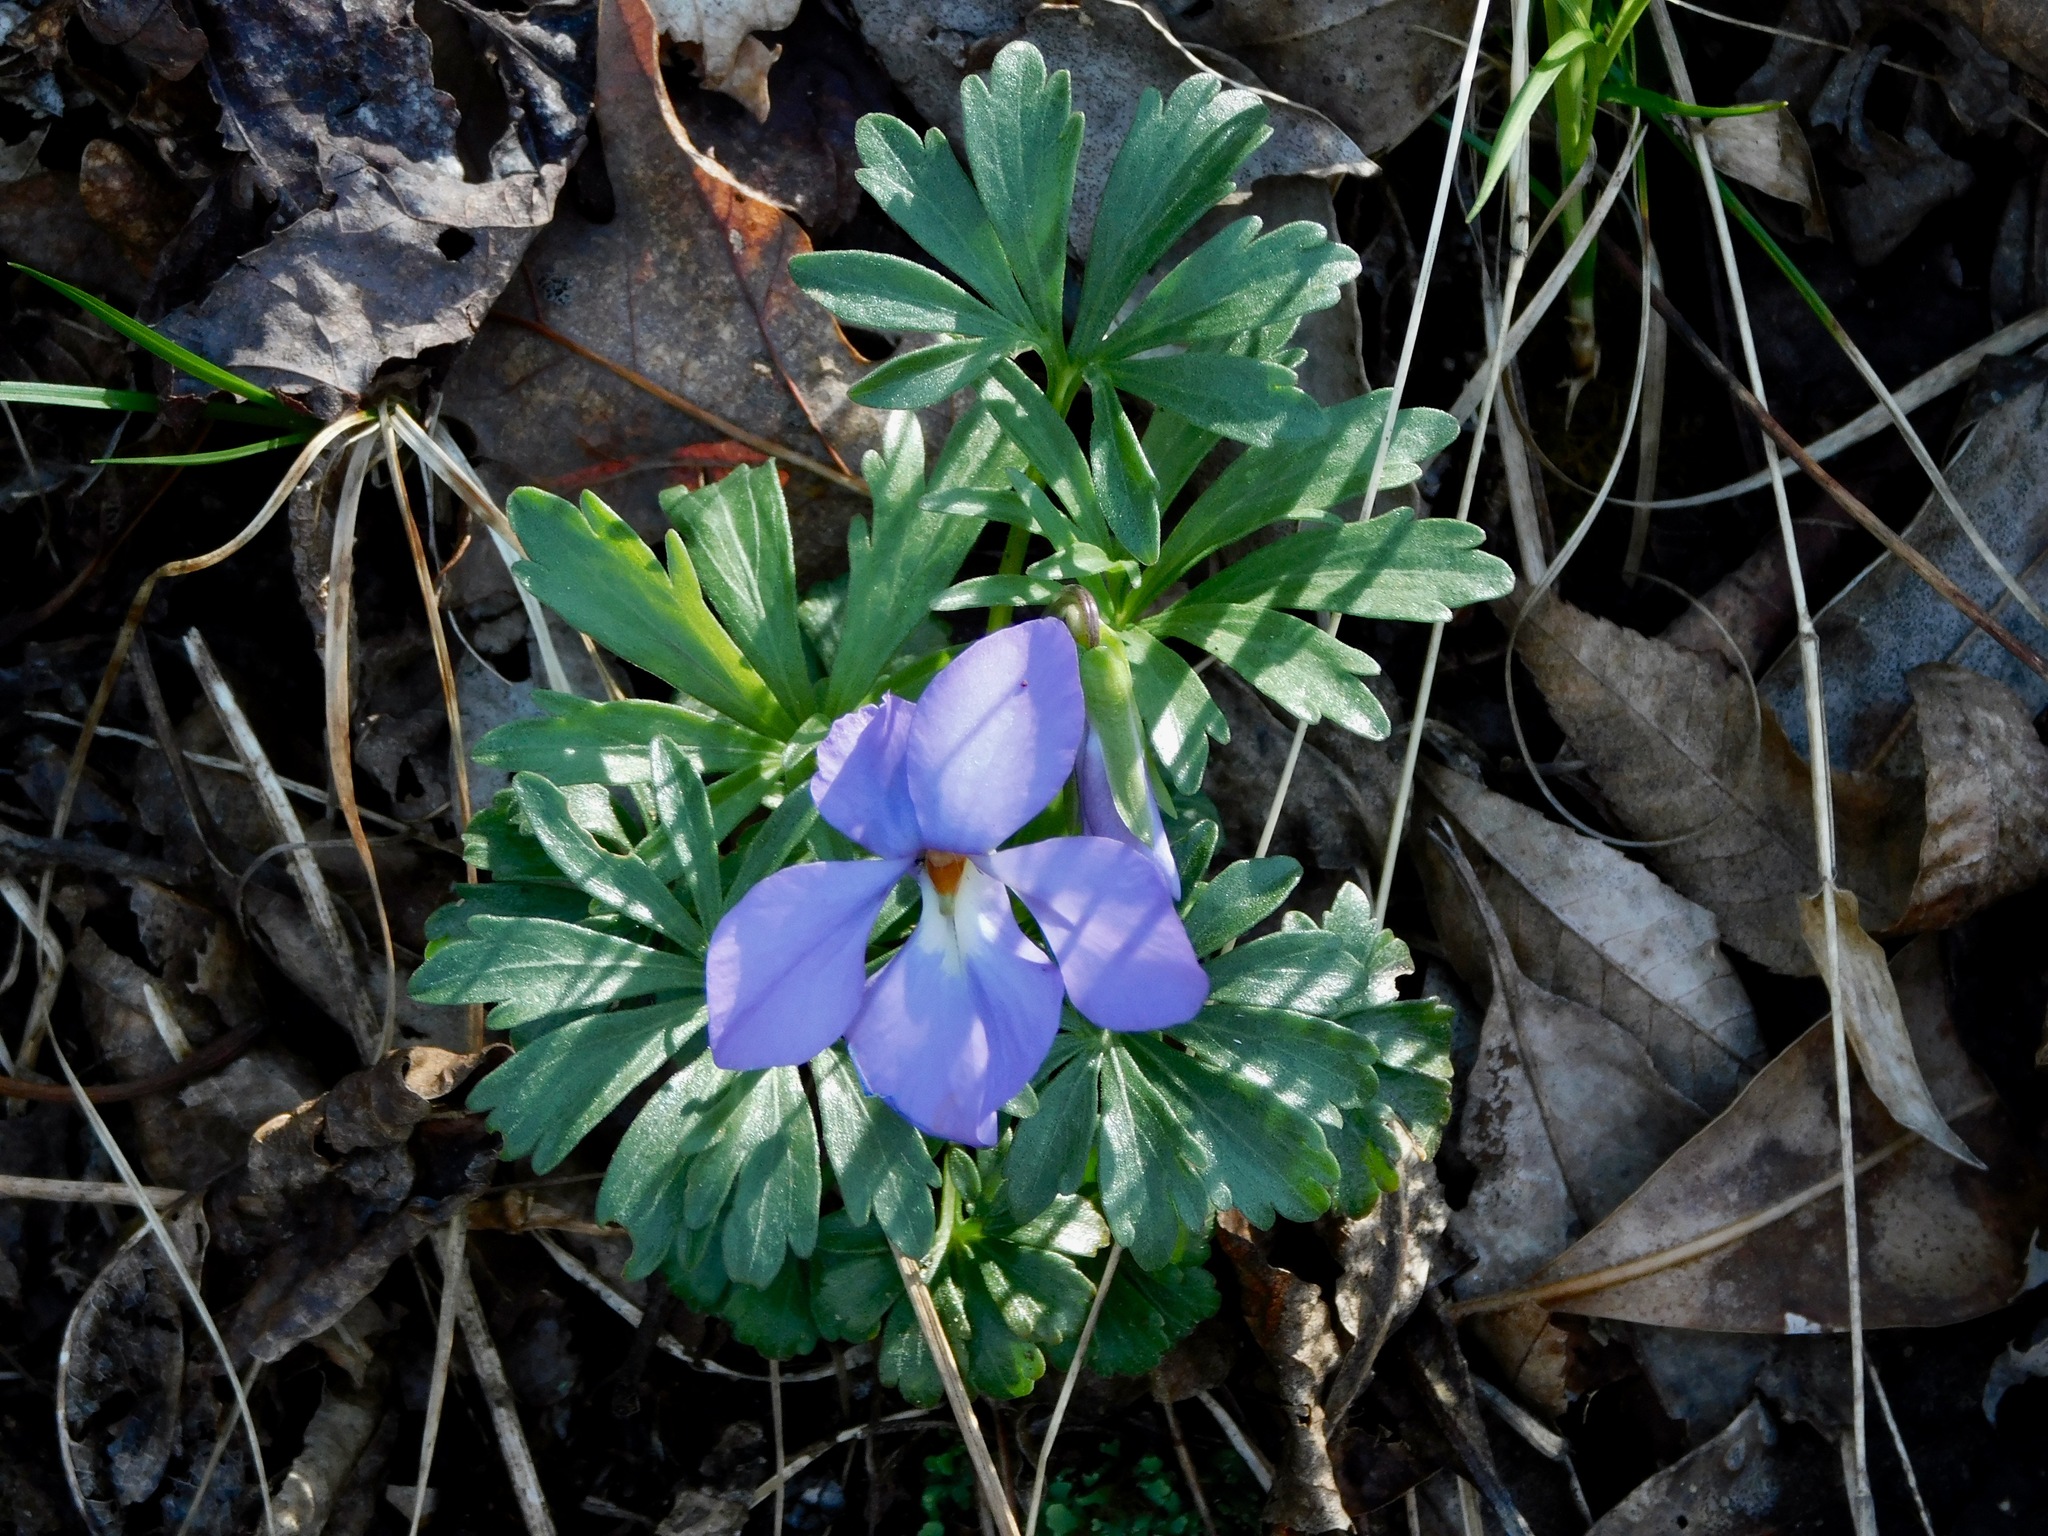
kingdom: Plantae
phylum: Tracheophyta
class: Magnoliopsida
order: Malpighiales
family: Violaceae
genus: Viola
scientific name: Viola pedata
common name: Pansy violet
